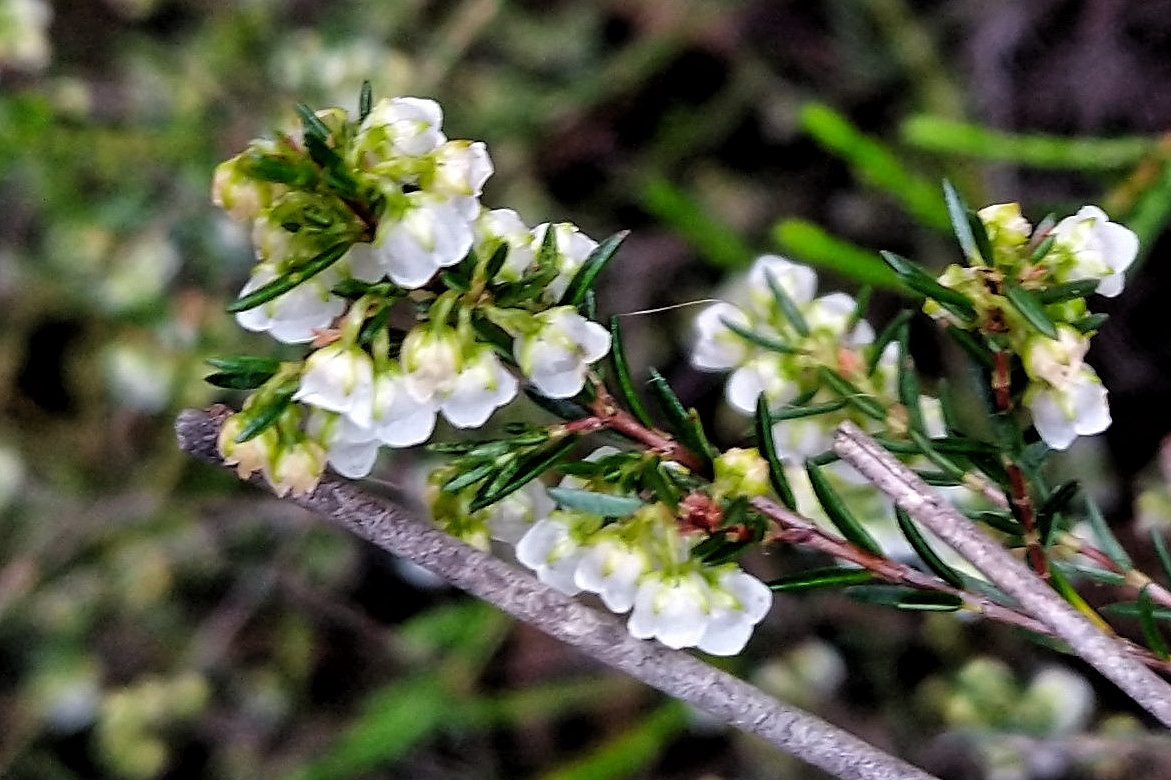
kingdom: Plantae
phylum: Tracheophyta
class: Magnoliopsida
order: Ericales
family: Ericaceae
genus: Erica
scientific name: Erica tenuis
